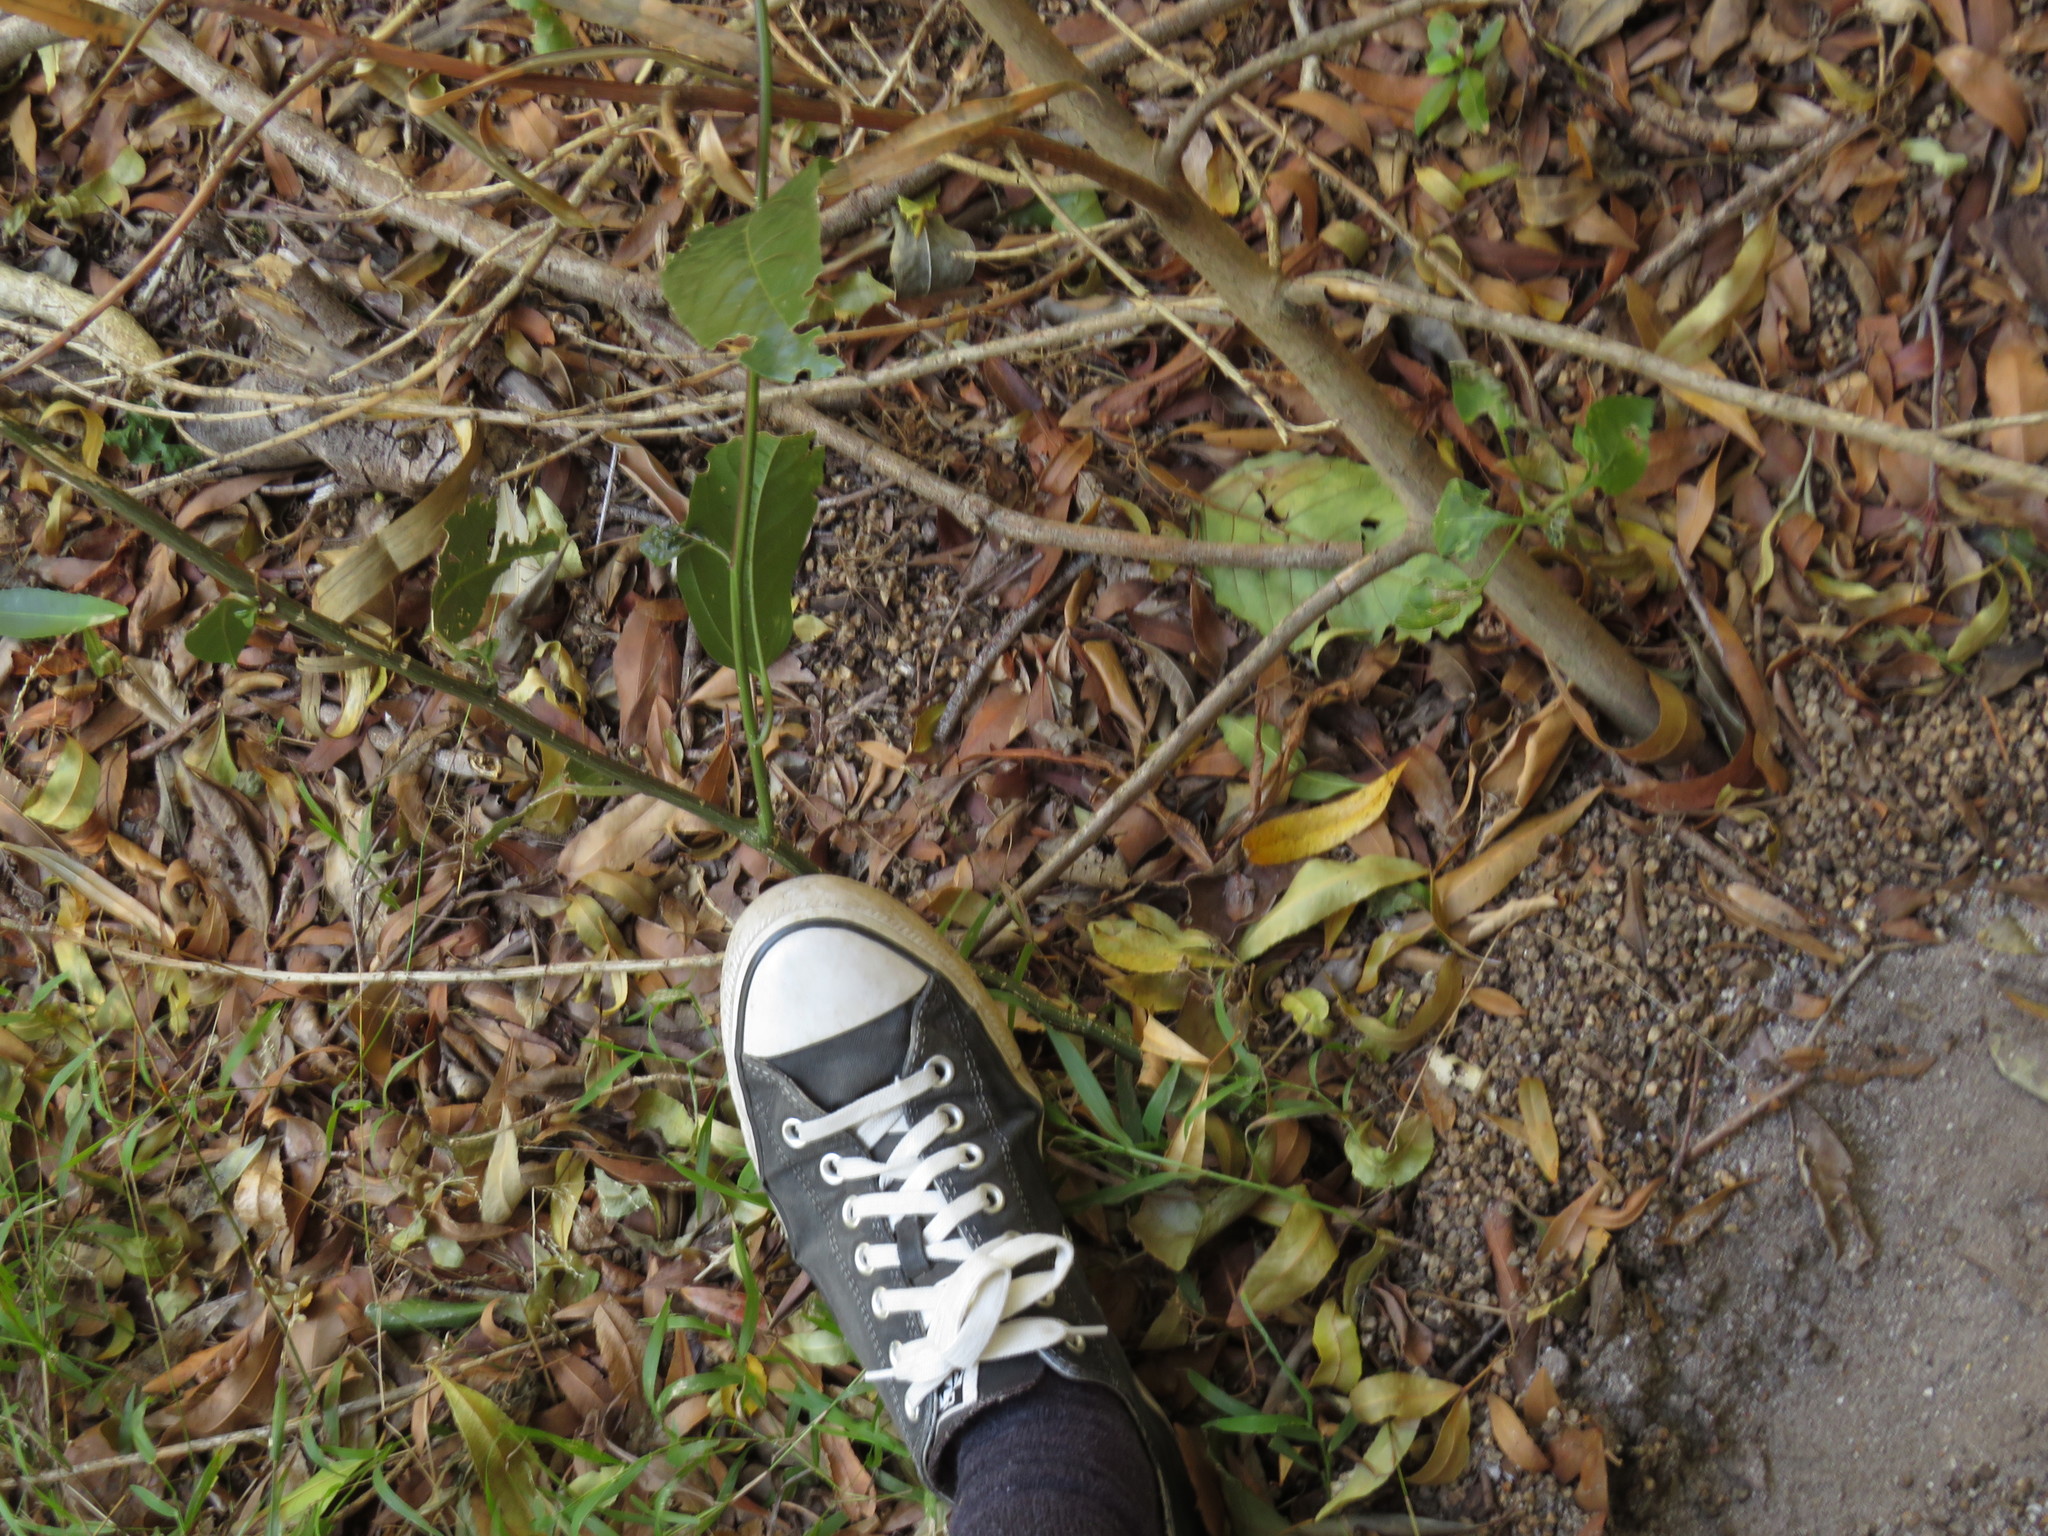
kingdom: Plantae
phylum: Tracheophyta
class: Magnoliopsida
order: Malpighiales
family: Passifloraceae
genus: Passiflora
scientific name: Passiflora edulis
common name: Purple granadilla
